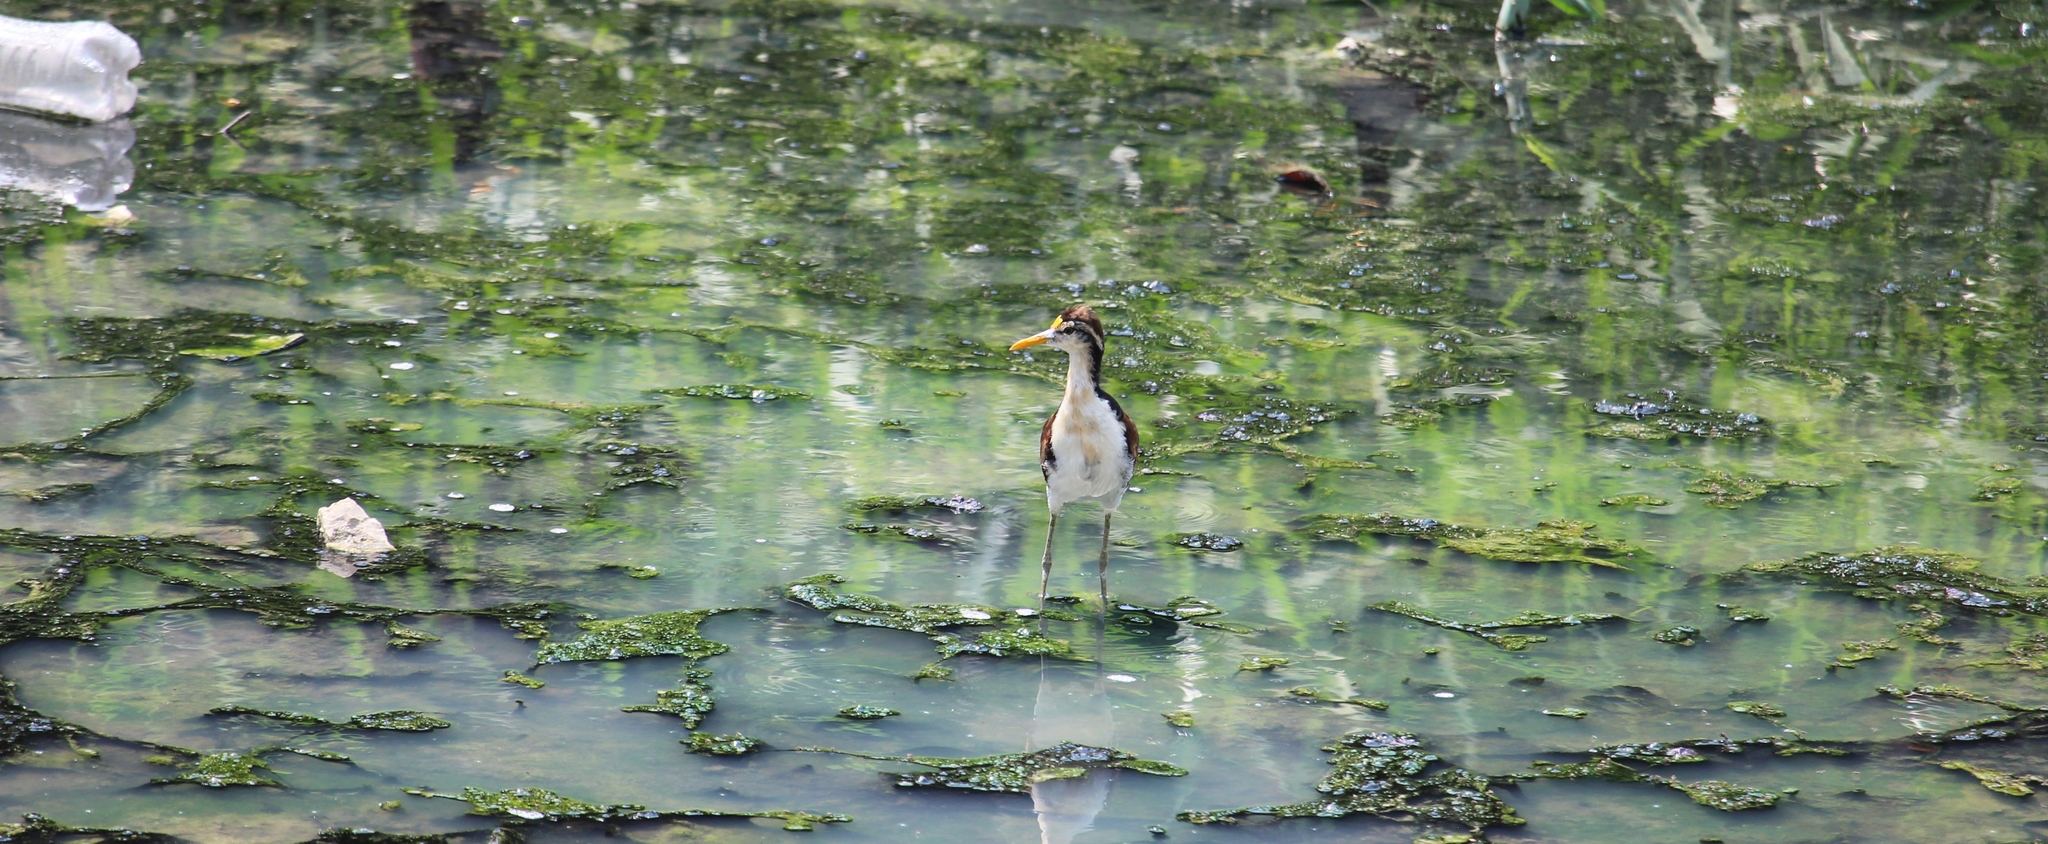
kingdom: Animalia
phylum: Chordata
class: Aves
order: Charadriiformes
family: Jacanidae
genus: Jacana
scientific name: Jacana spinosa
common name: Northern jacana
